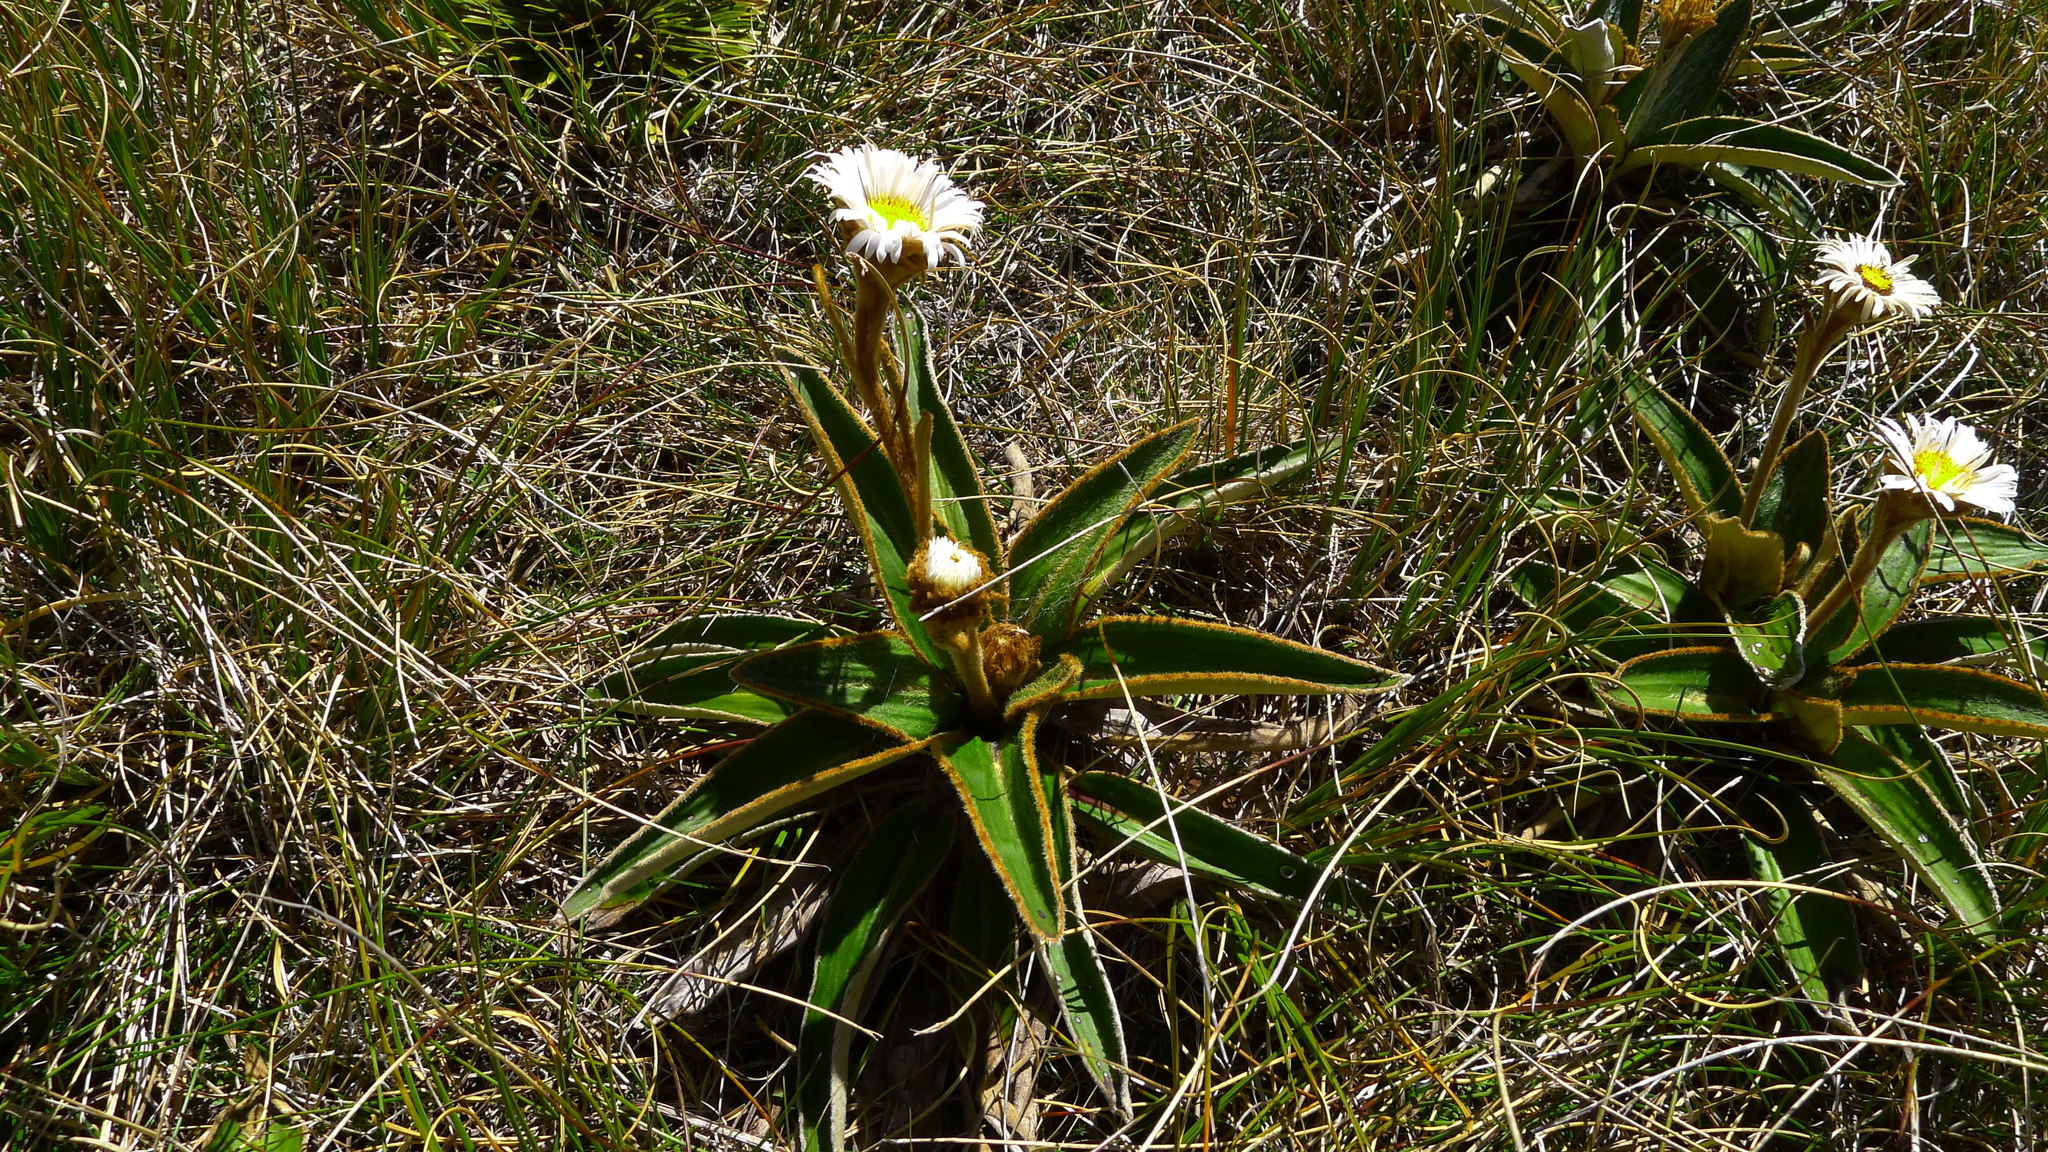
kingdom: Plantae
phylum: Tracheophyta
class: Magnoliopsida
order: Asterales
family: Asteraceae
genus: Celmisia
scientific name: Celmisia traversii
